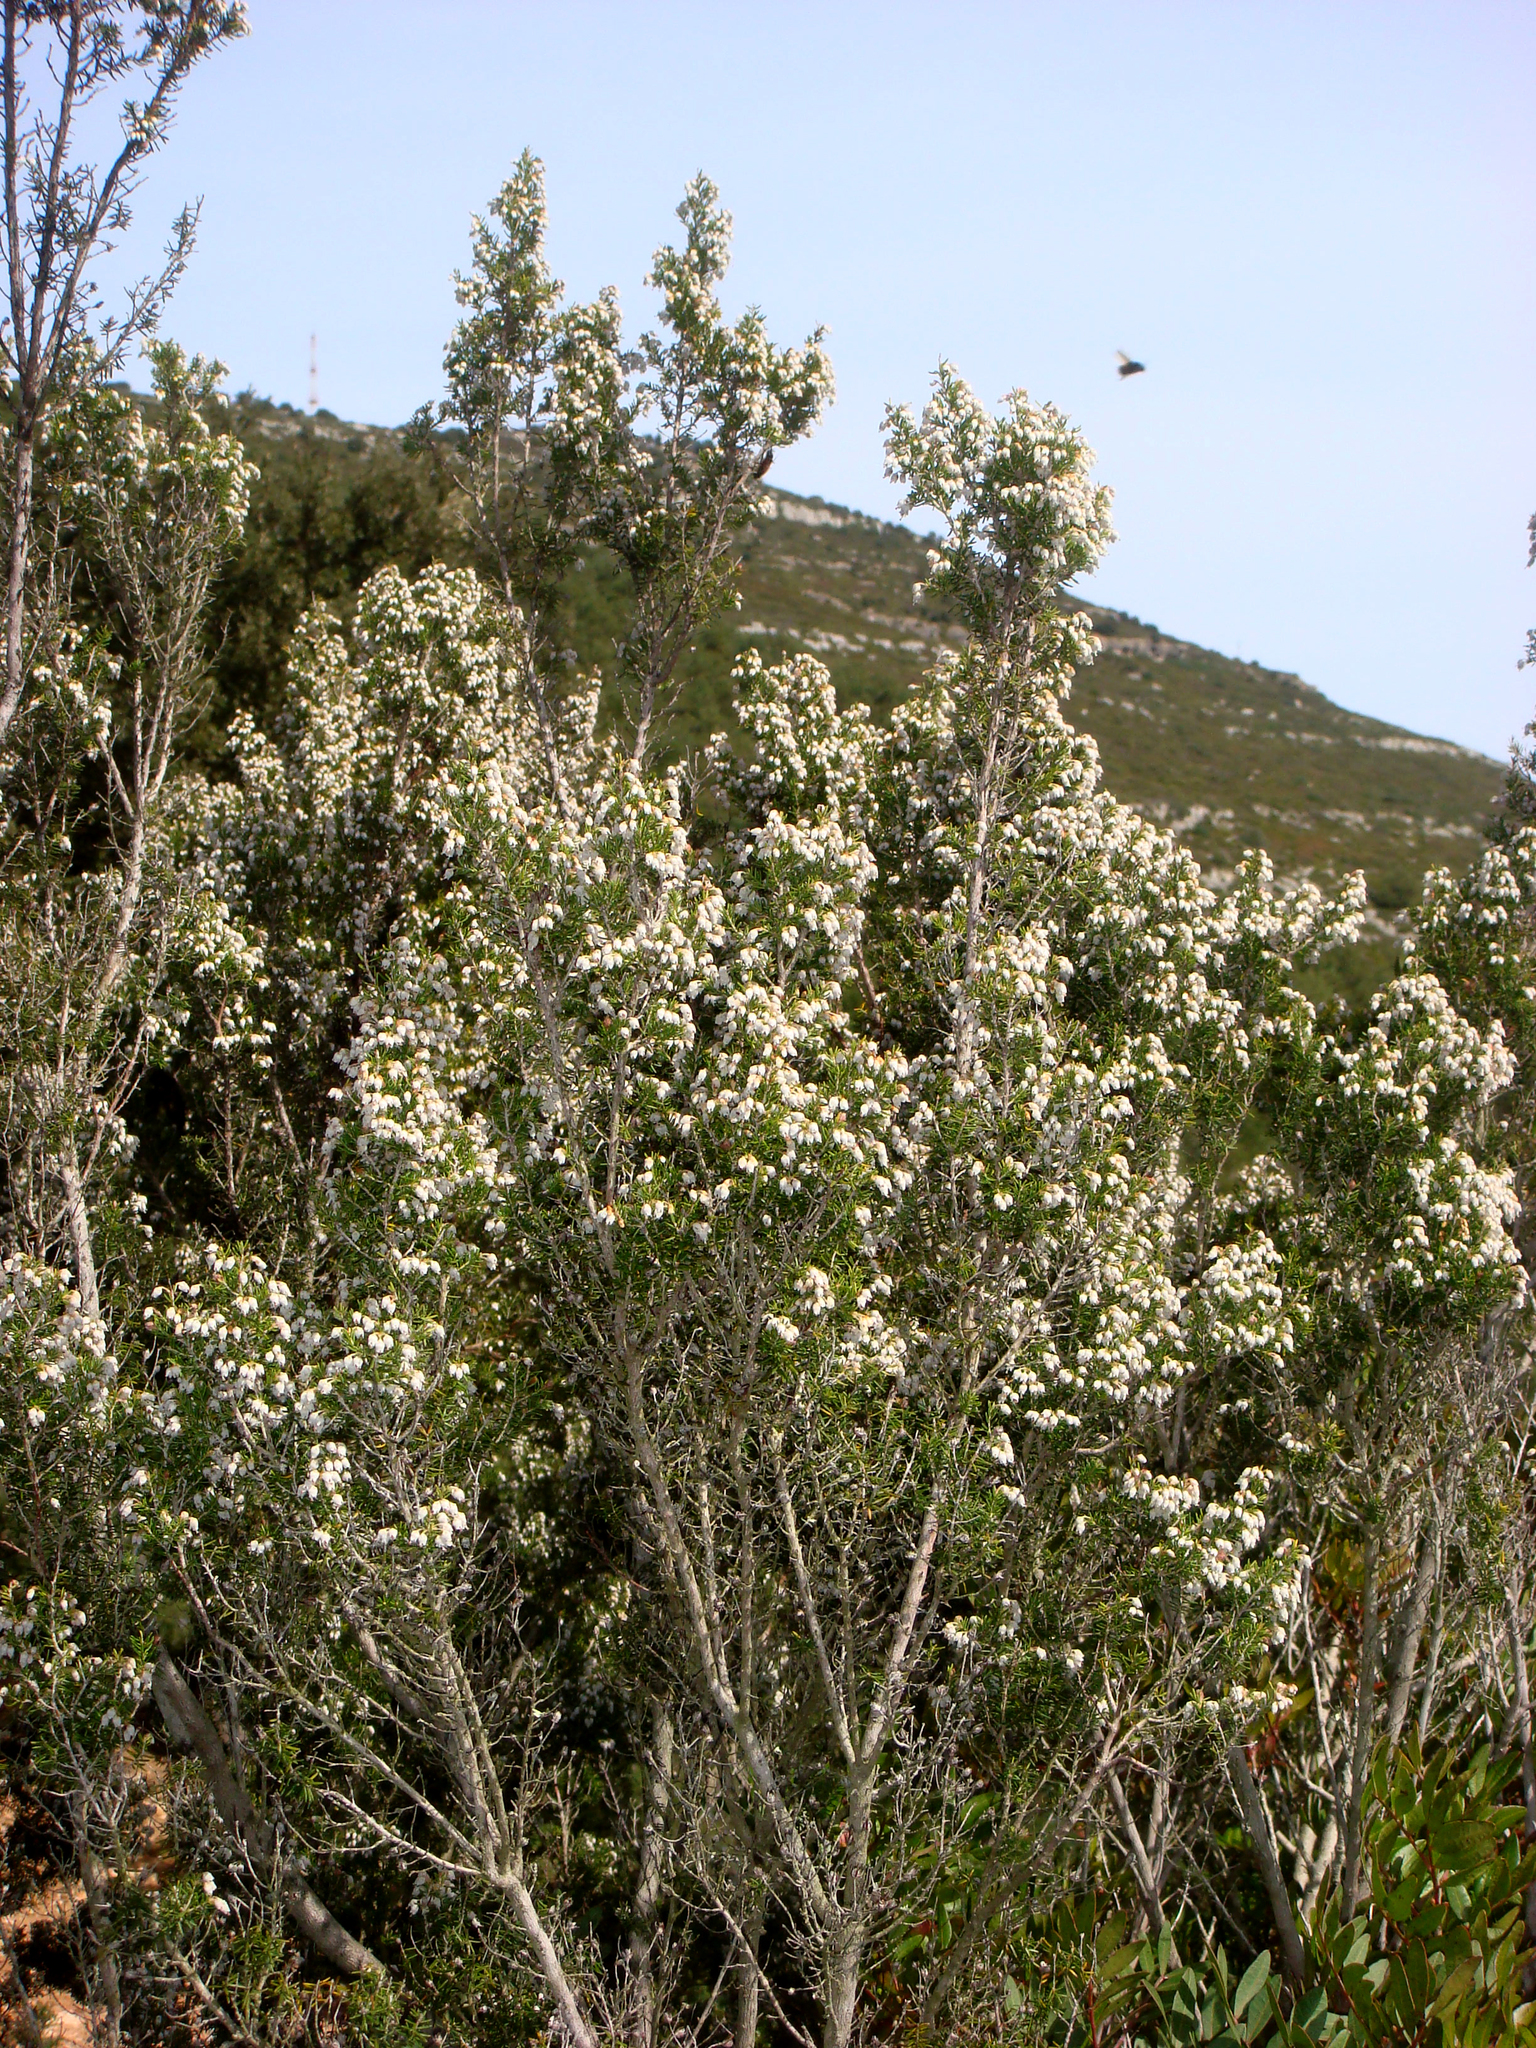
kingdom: Plantae
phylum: Tracheophyta
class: Magnoliopsida
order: Ericales
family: Ericaceae
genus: Erica
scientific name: Erica arborea
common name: Tree heath
